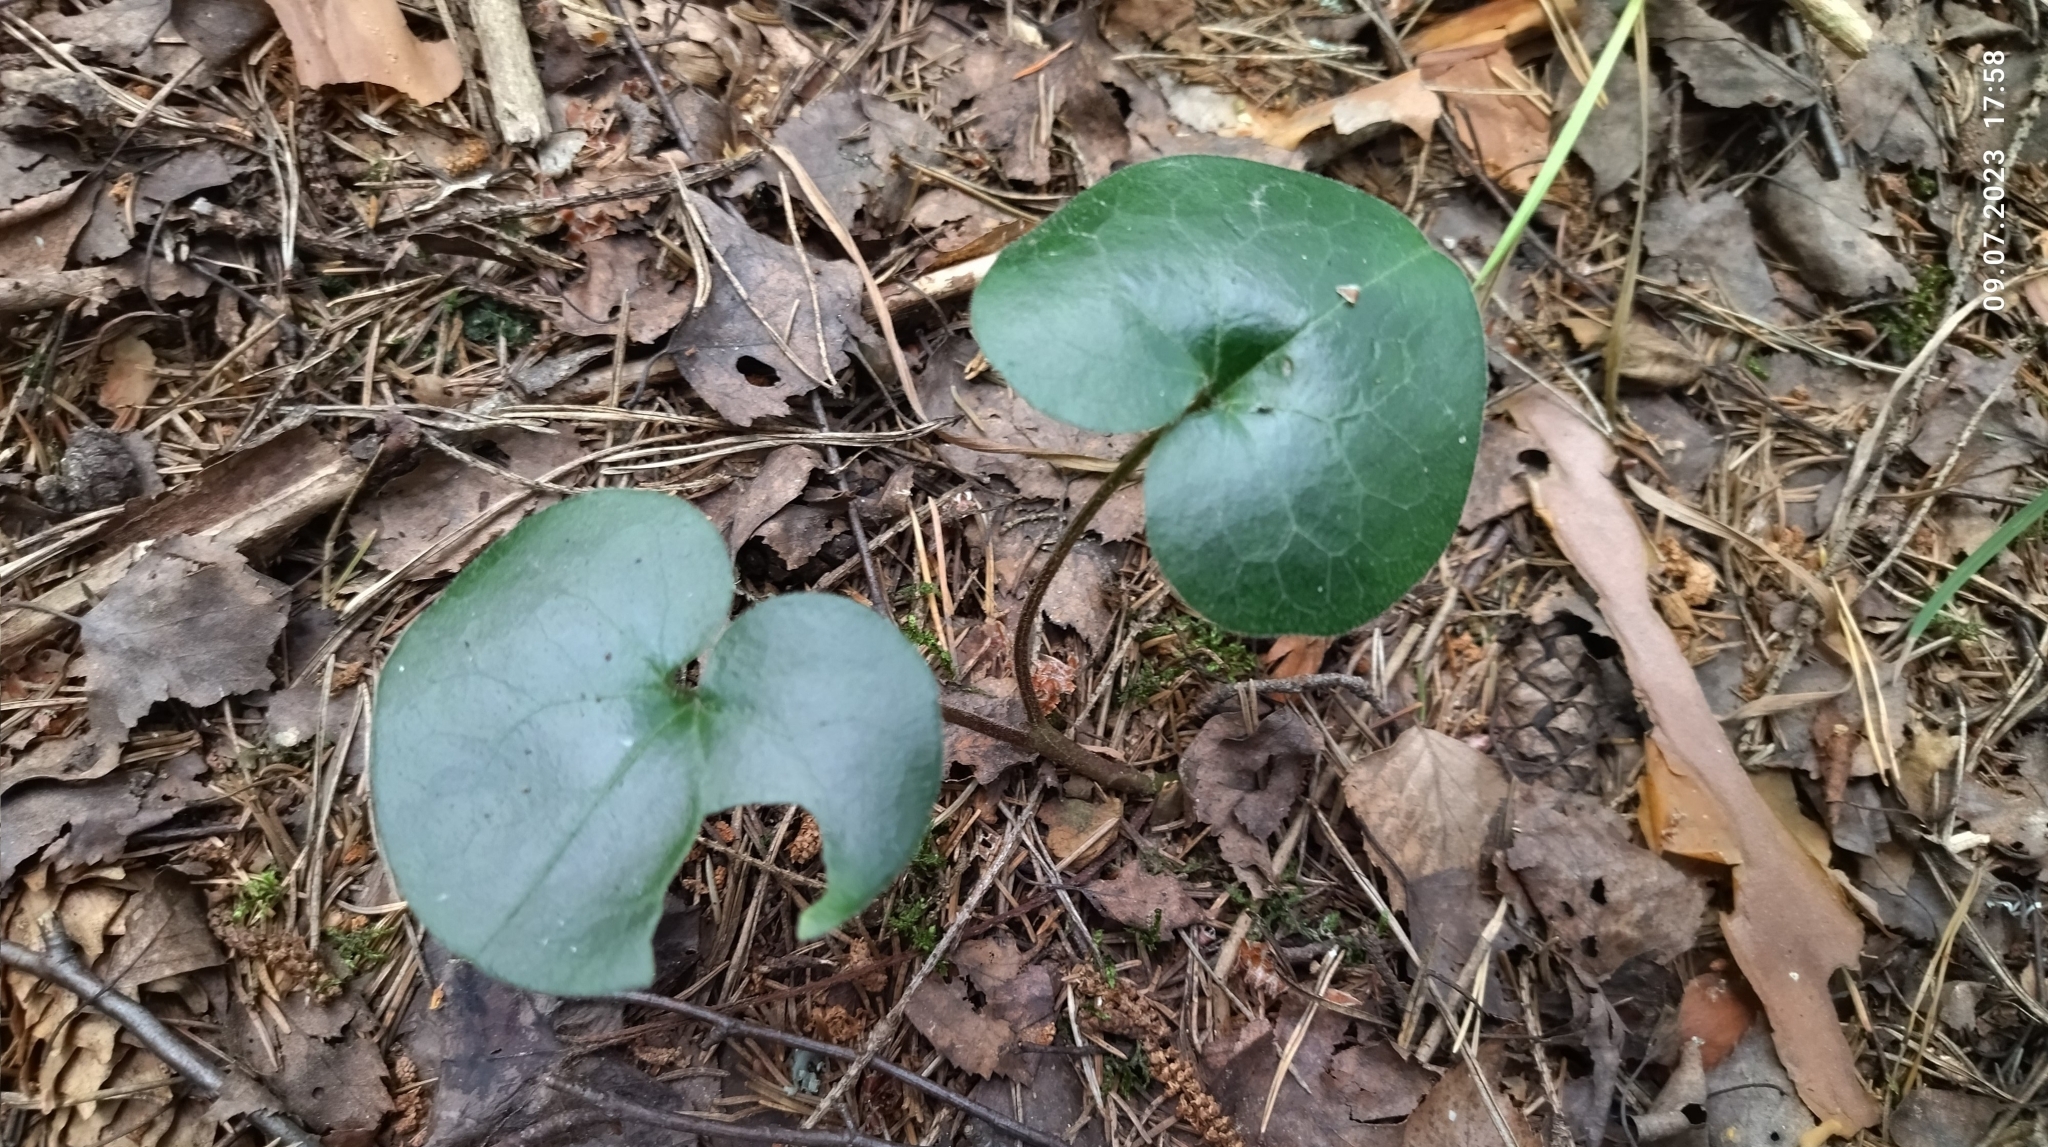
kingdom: Plantae
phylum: Tracheophyta
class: Magnoliopsida
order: Piperales
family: Aristolochiaceae
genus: Asarum
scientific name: Asarum europaeum
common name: Asarabacca
